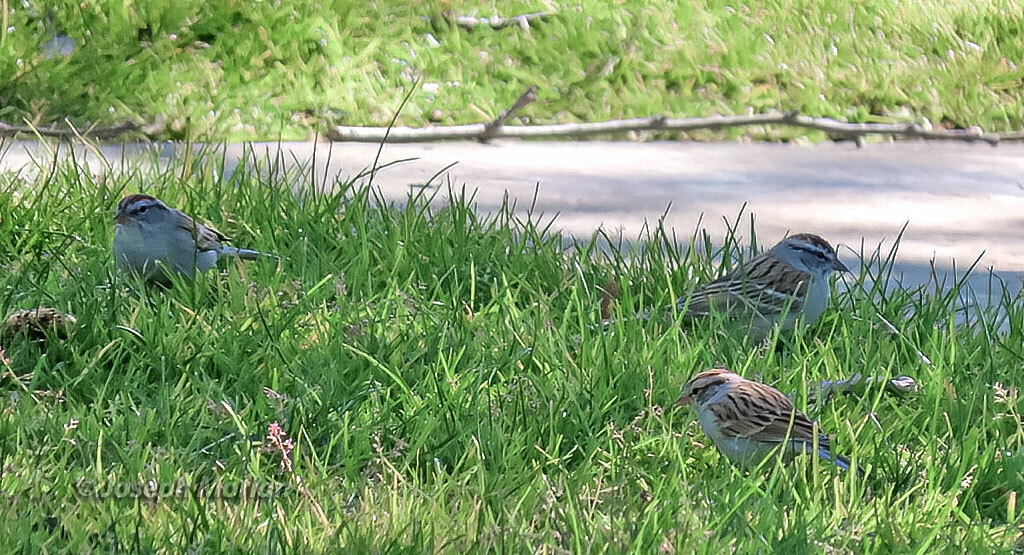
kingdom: Animalia
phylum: Chordata
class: Aves
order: Passeriformes
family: Passerellidae
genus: Spizella
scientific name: Spizella passerina
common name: Chipping sparrow
